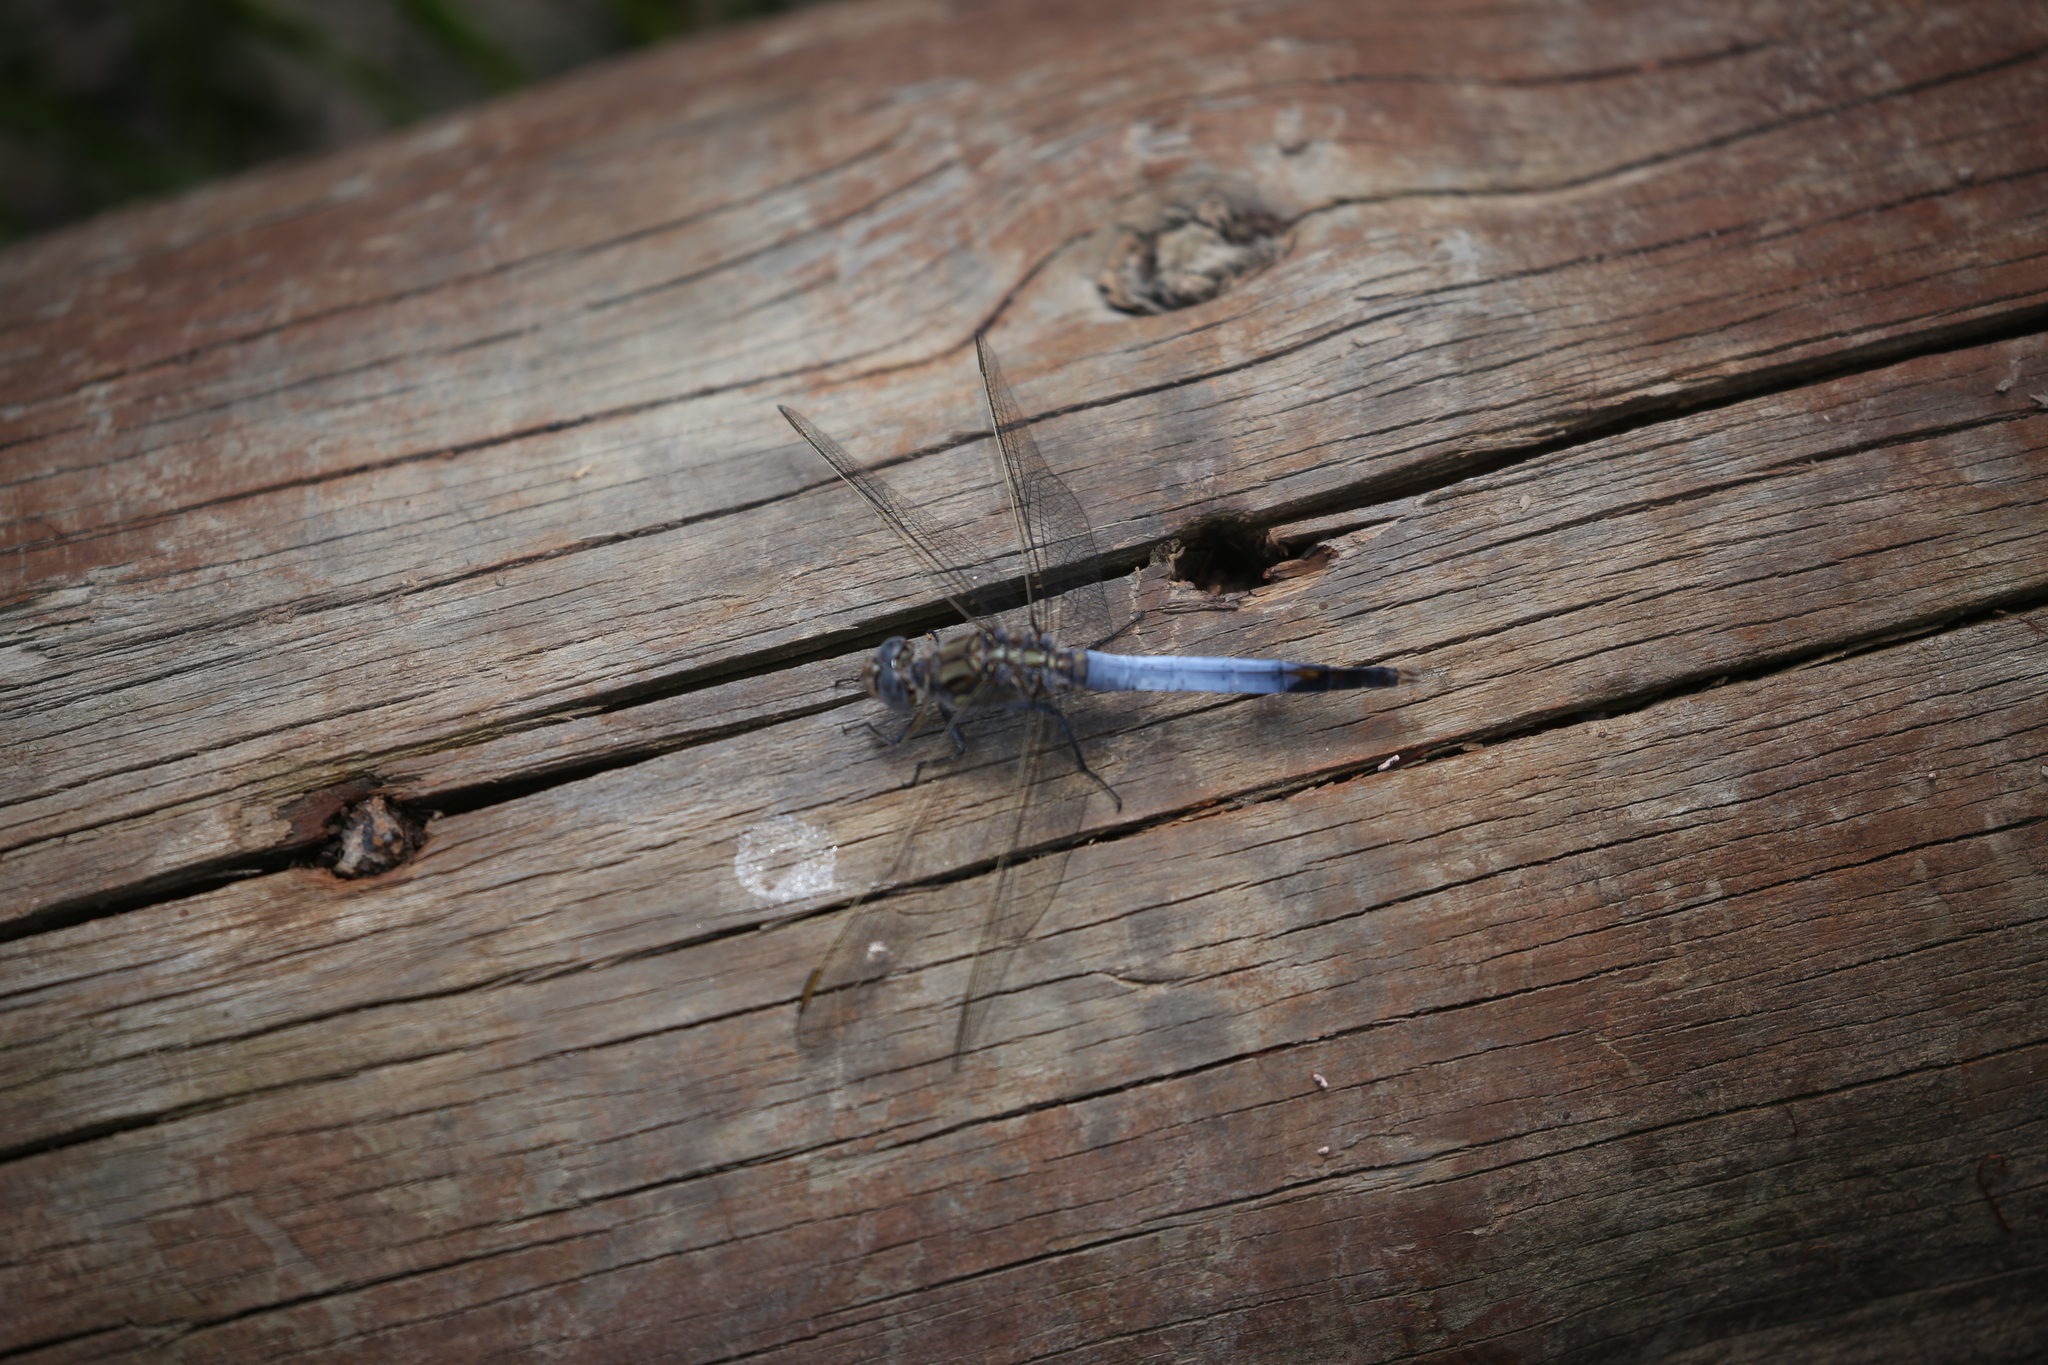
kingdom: Animalia
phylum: Arthropoda
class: Insecta
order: Odonata
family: Libellulidae
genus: Orthetrum
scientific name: Orthetrum caledonicum
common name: Blue skimmer
